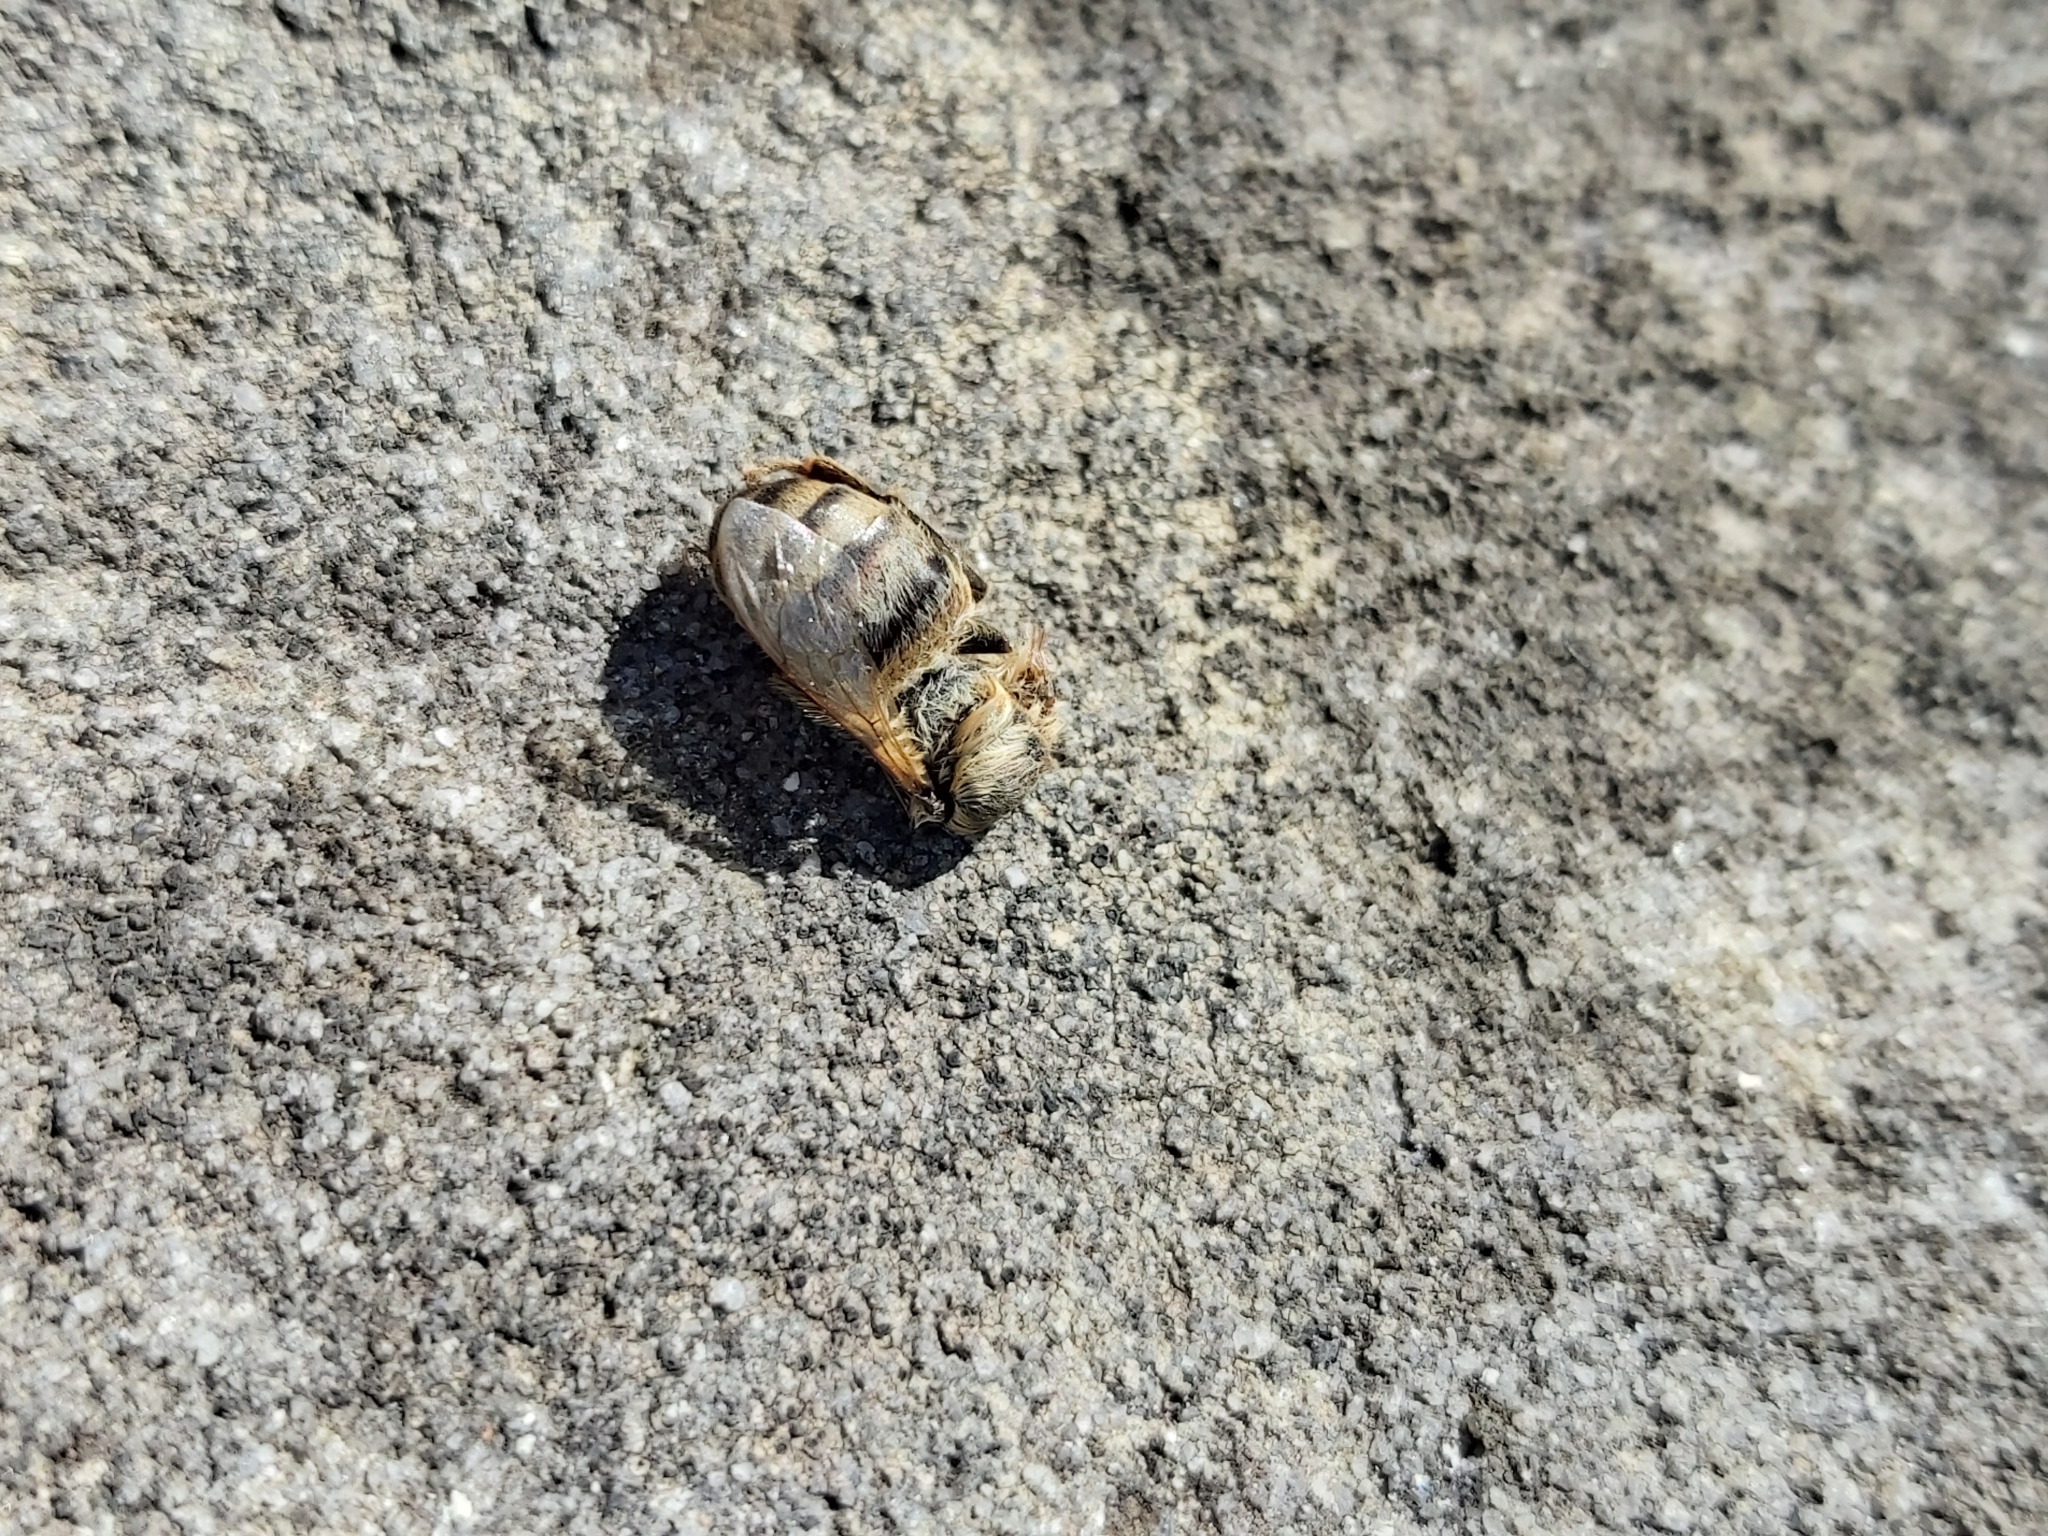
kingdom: Animalia
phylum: Arthropoda
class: Insecta
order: Hymenoptera
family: Apidae
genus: Apis
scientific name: Apis mellifera
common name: Honey bee
